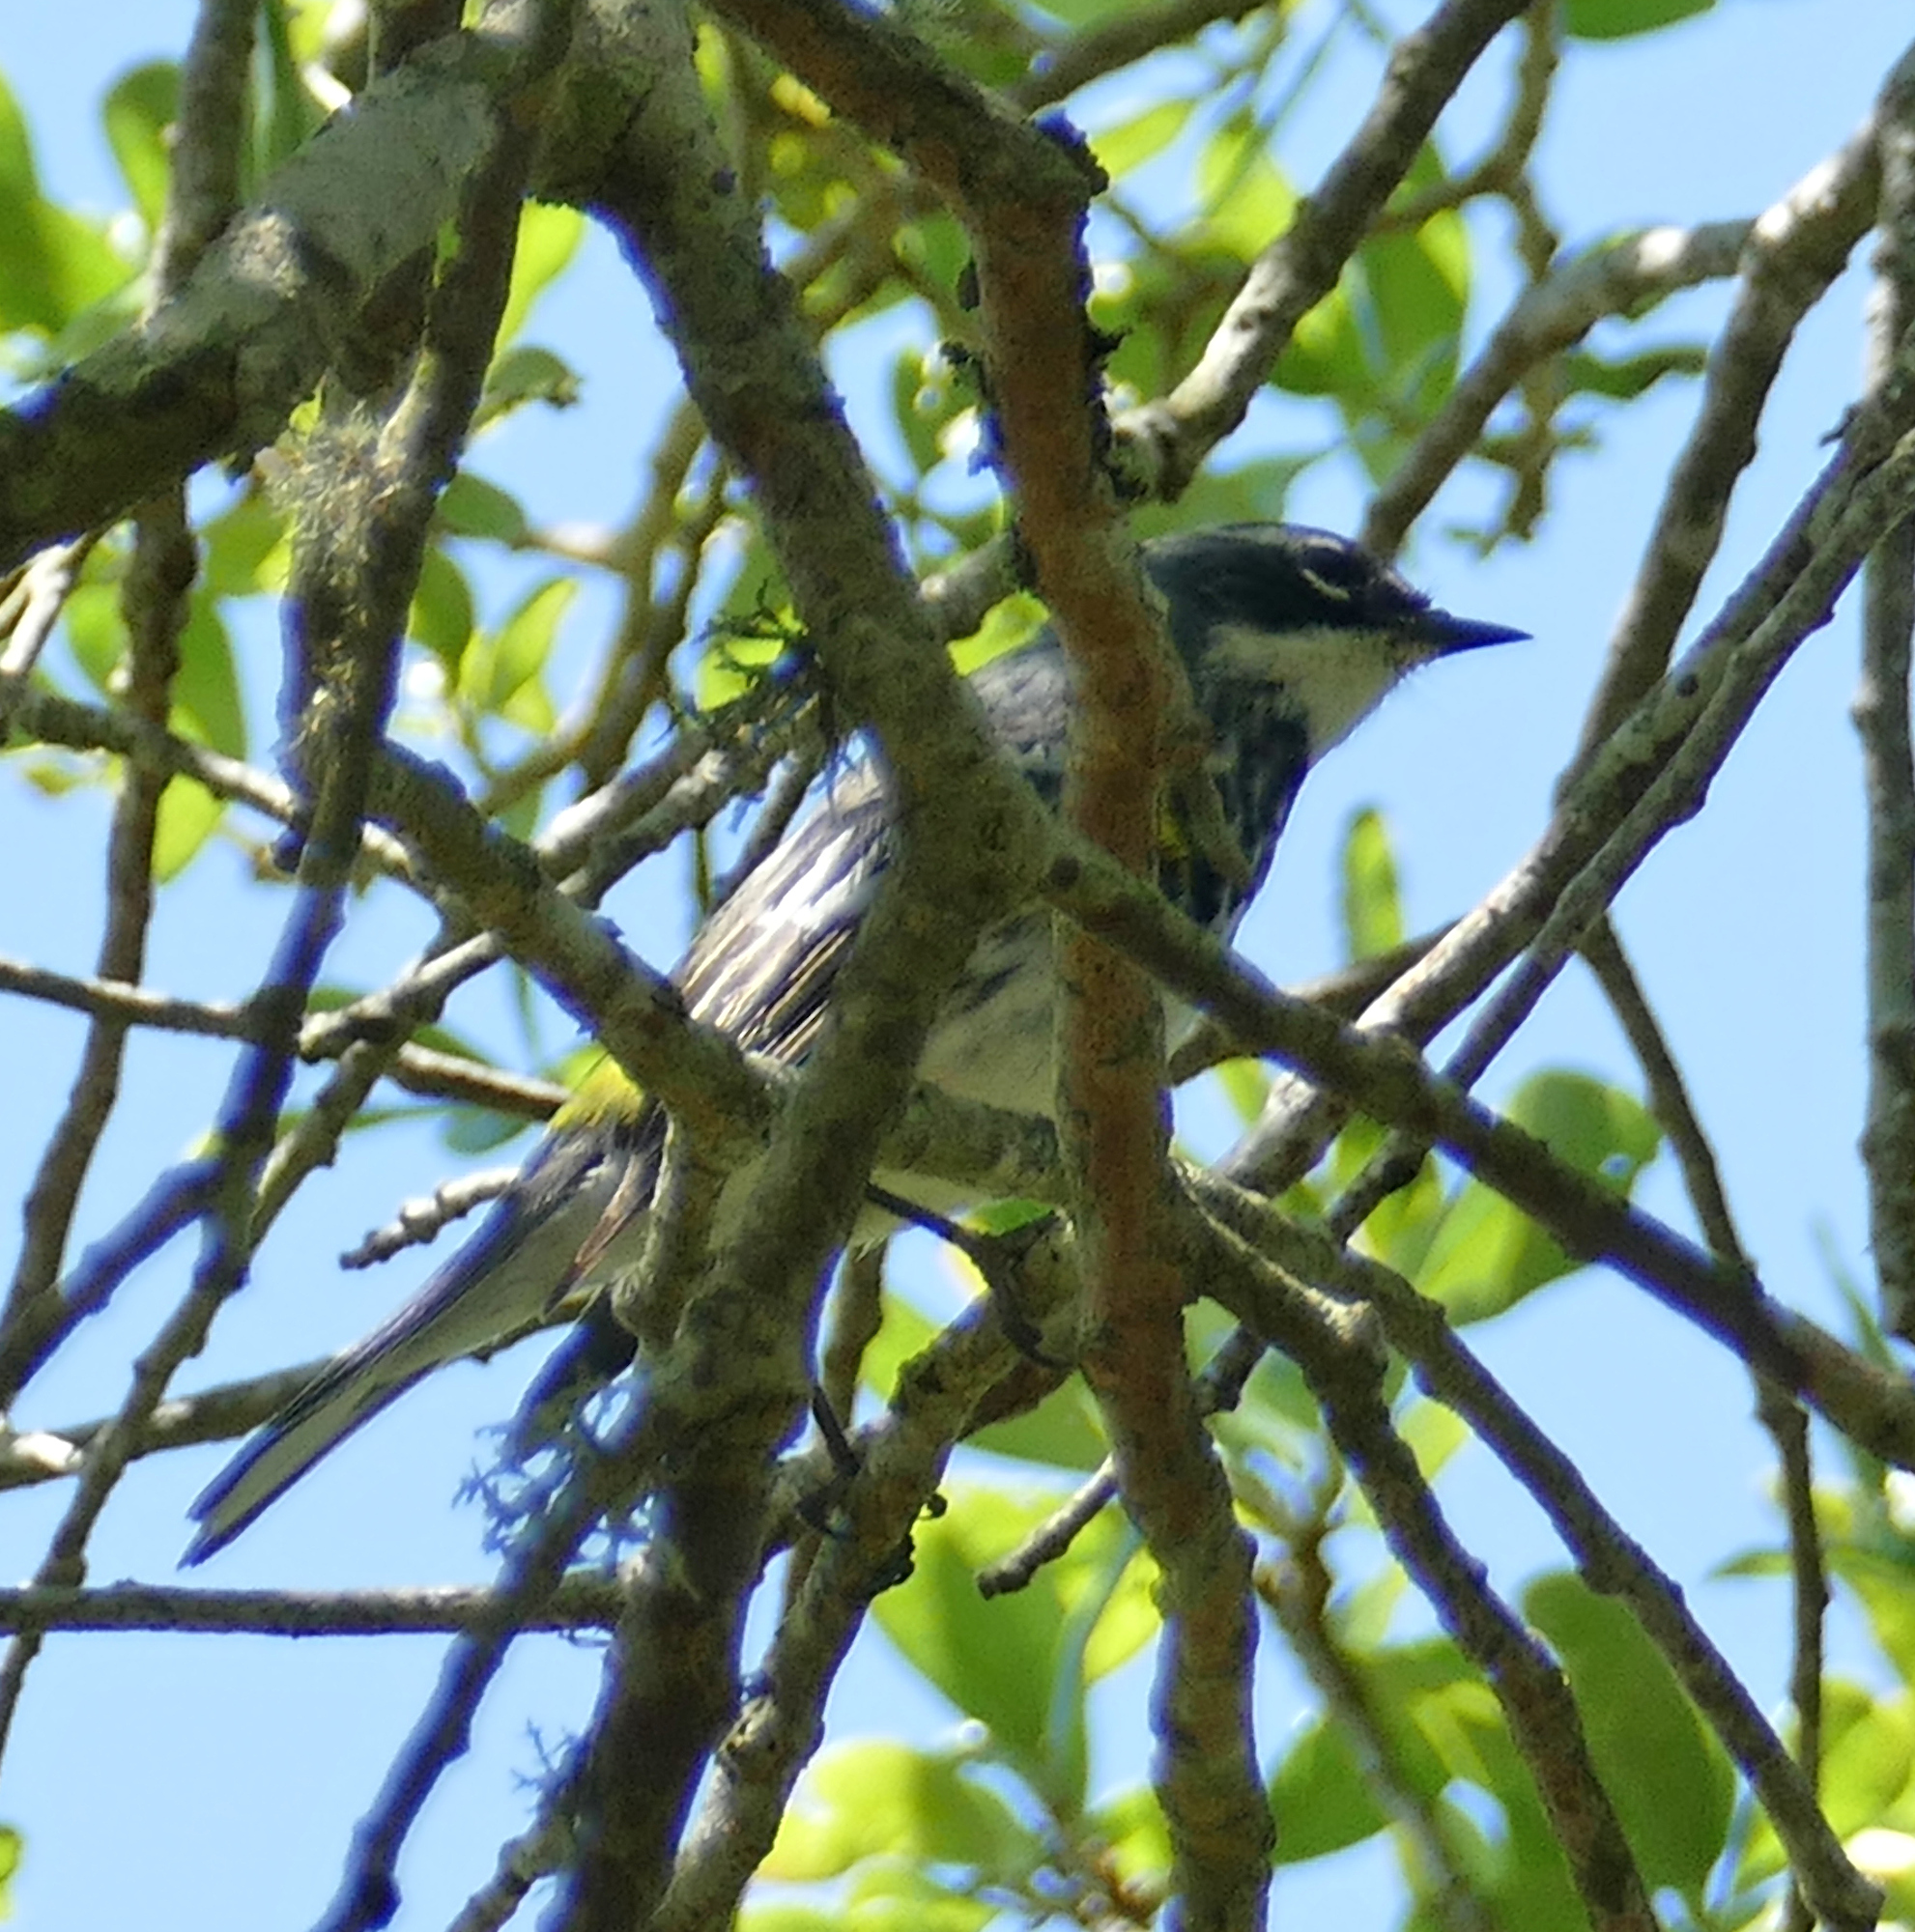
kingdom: Animalia
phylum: Chordata
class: Aves
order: Passeriformes
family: Parulidae
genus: Setophaga
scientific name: Setophaga coronata
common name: Myrtle warbler
